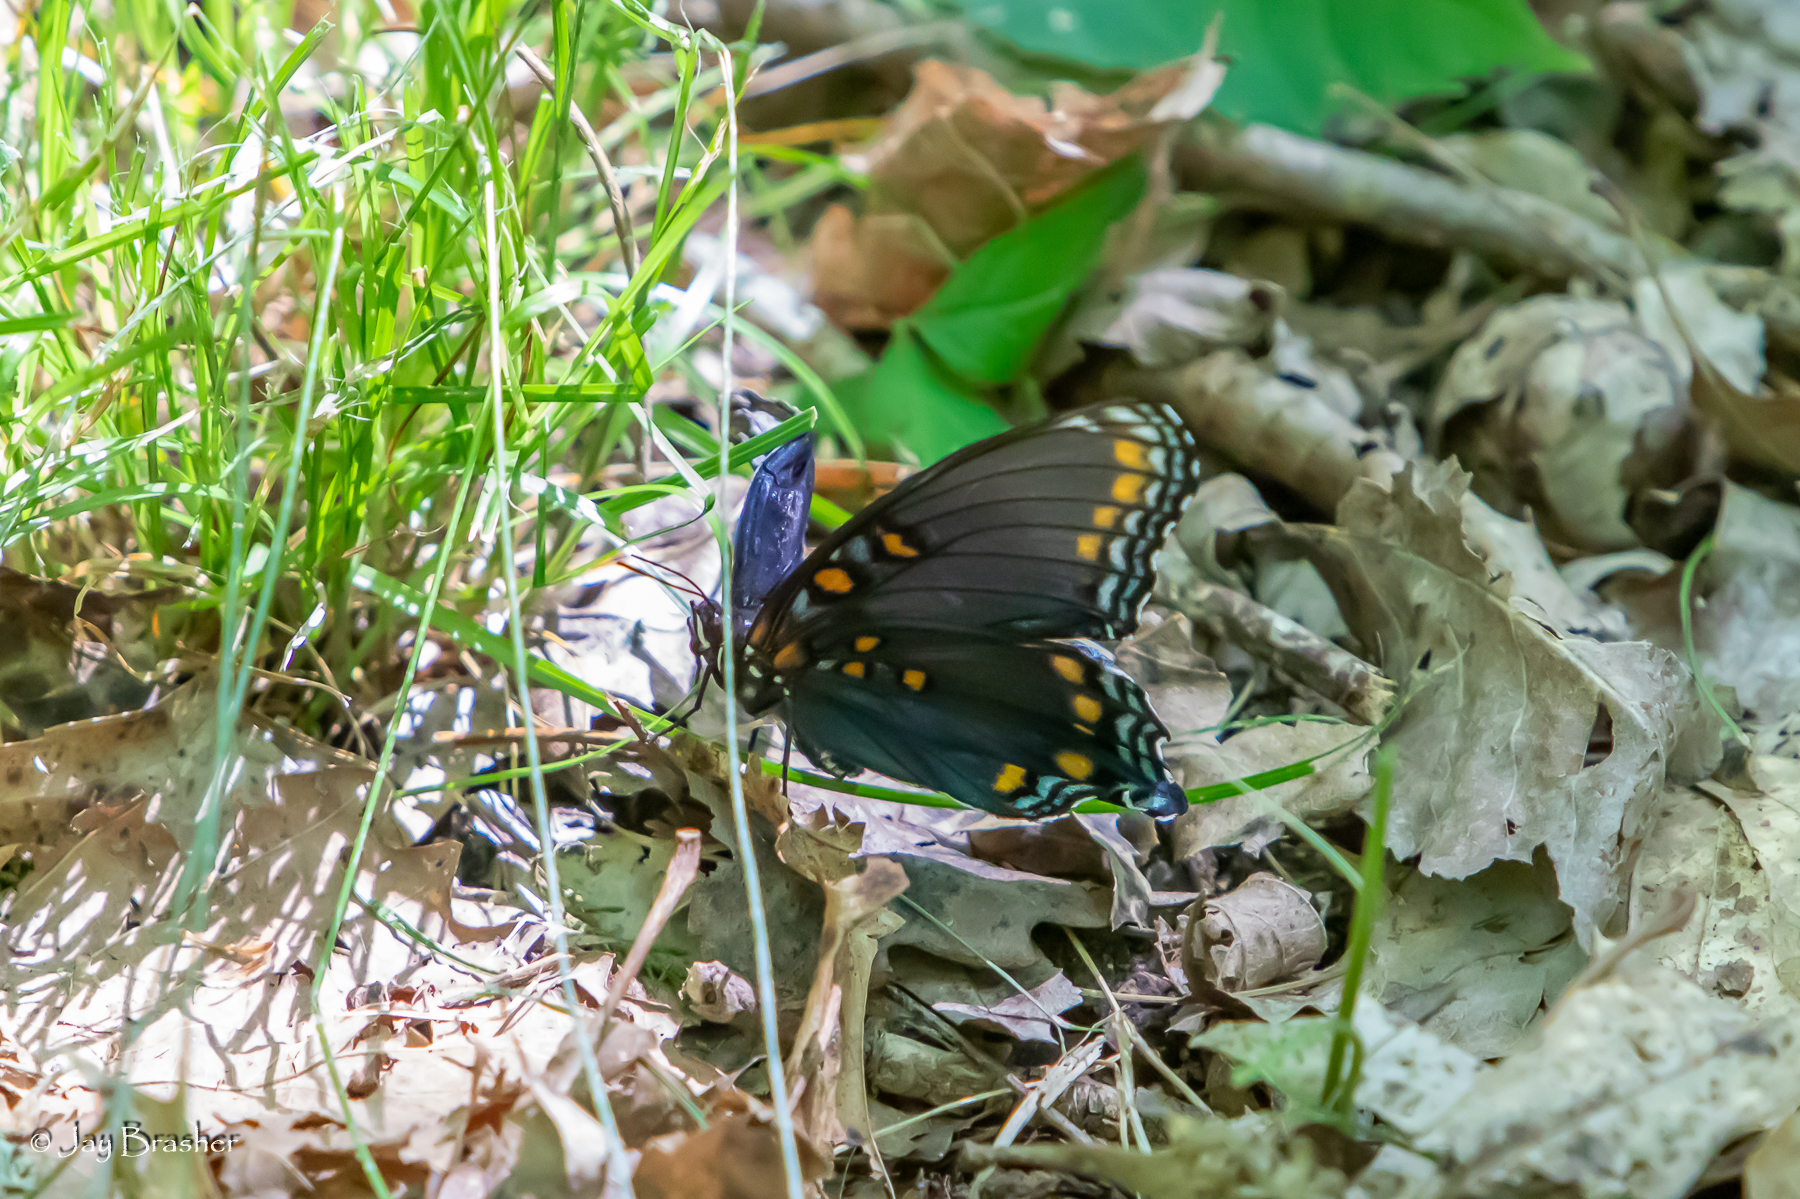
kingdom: Animalia
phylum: Arthropoda
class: Insecta
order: Lepidoptera
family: Nymphalidae
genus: Limenitis
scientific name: Limenitis astyanax
